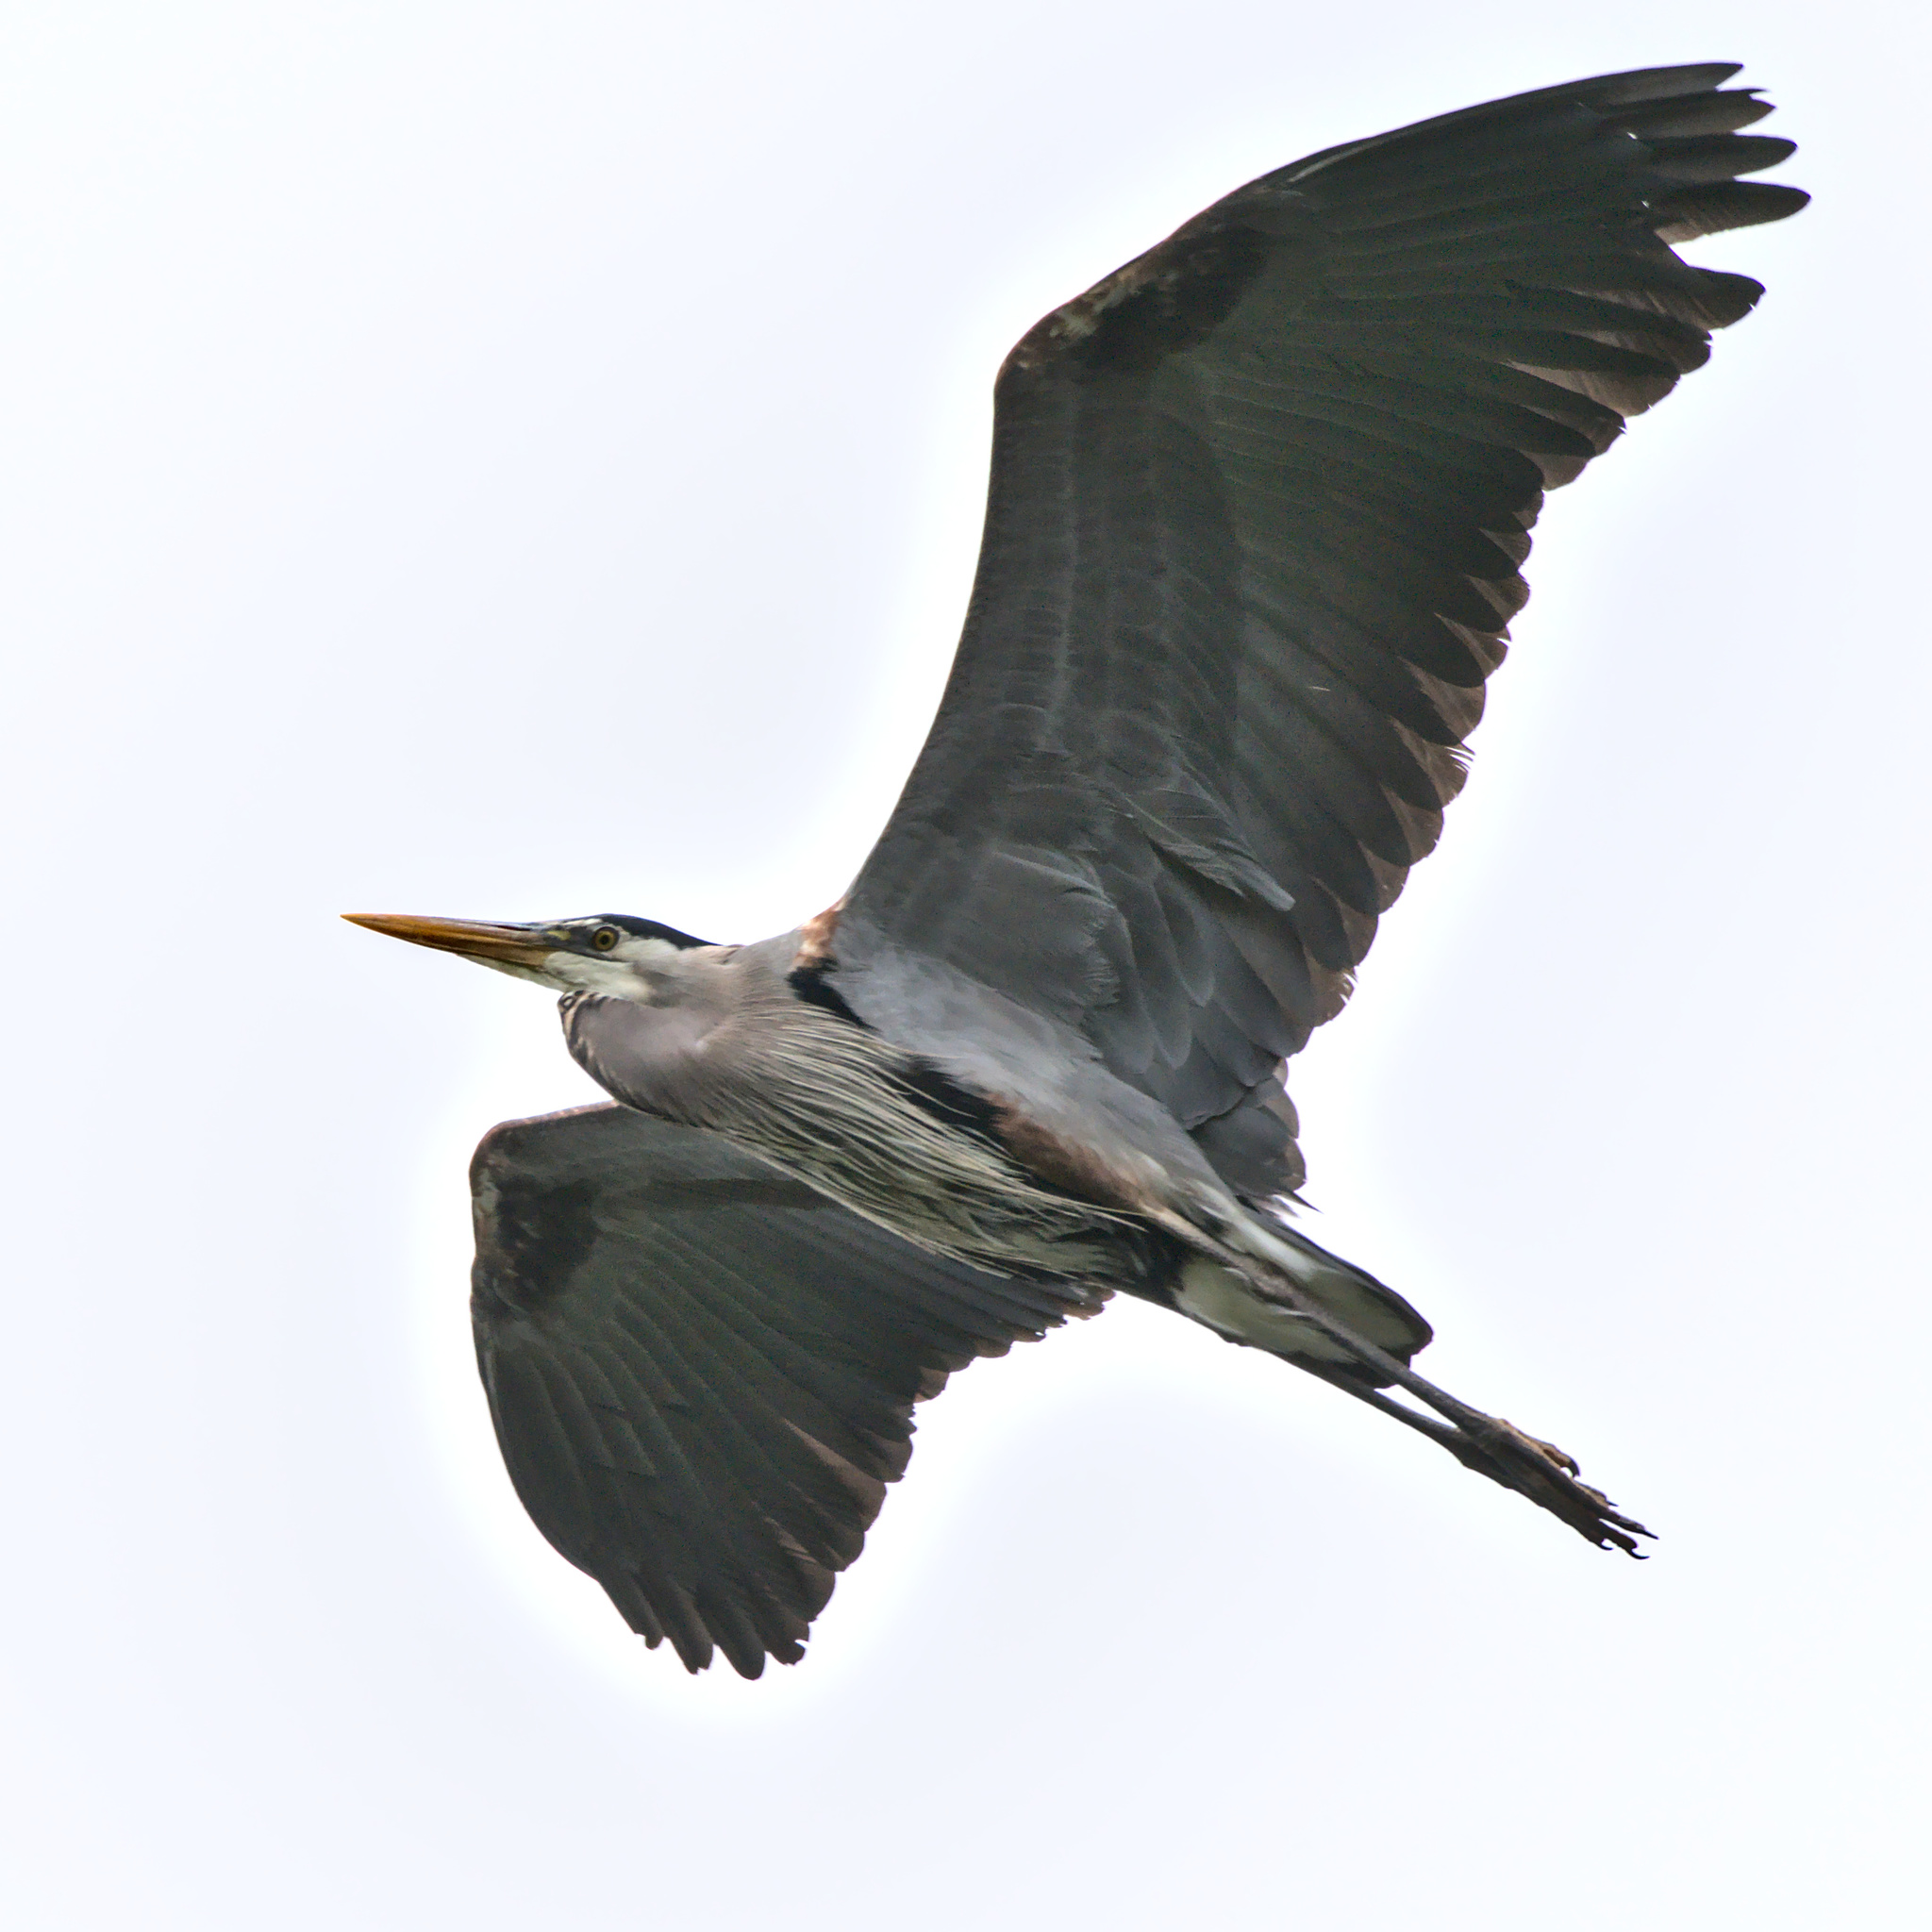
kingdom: Animalia
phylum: Chordata
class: Aves
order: Pelecaniformes
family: Ardeidae
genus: Ardea
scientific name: Ardea herodias
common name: Great blue heron
